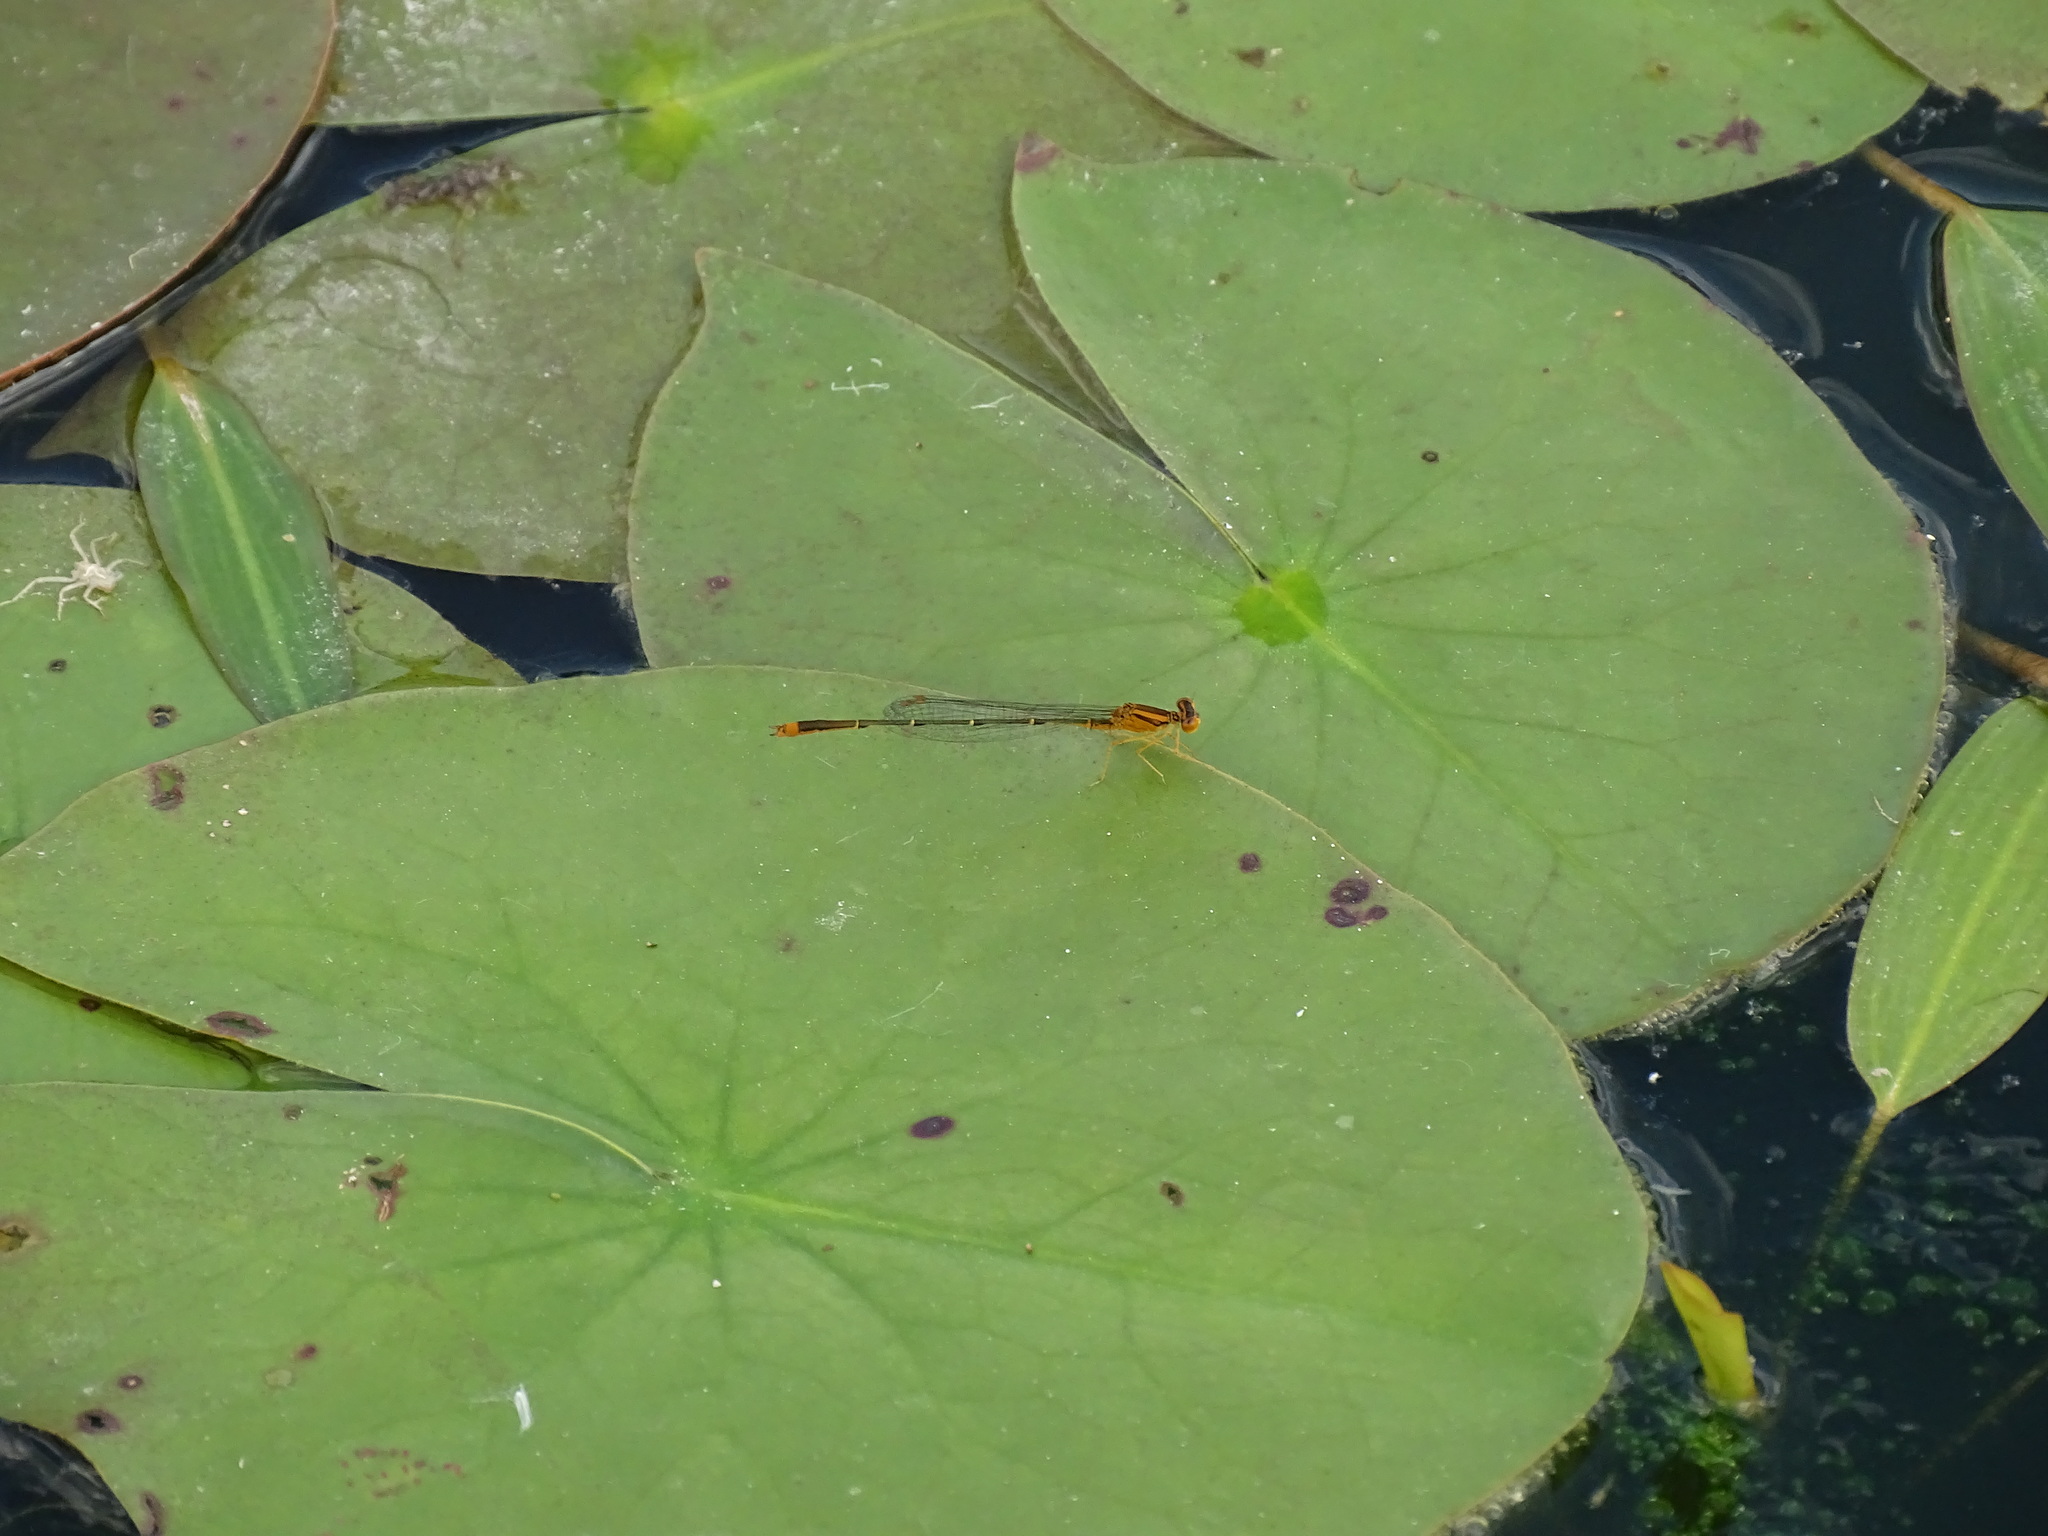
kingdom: Animalia
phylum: Arthropoda
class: Insecta
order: Odonata
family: Coenagrionidae
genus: Enallagma
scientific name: Enallagma signatum
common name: Orange bluet
